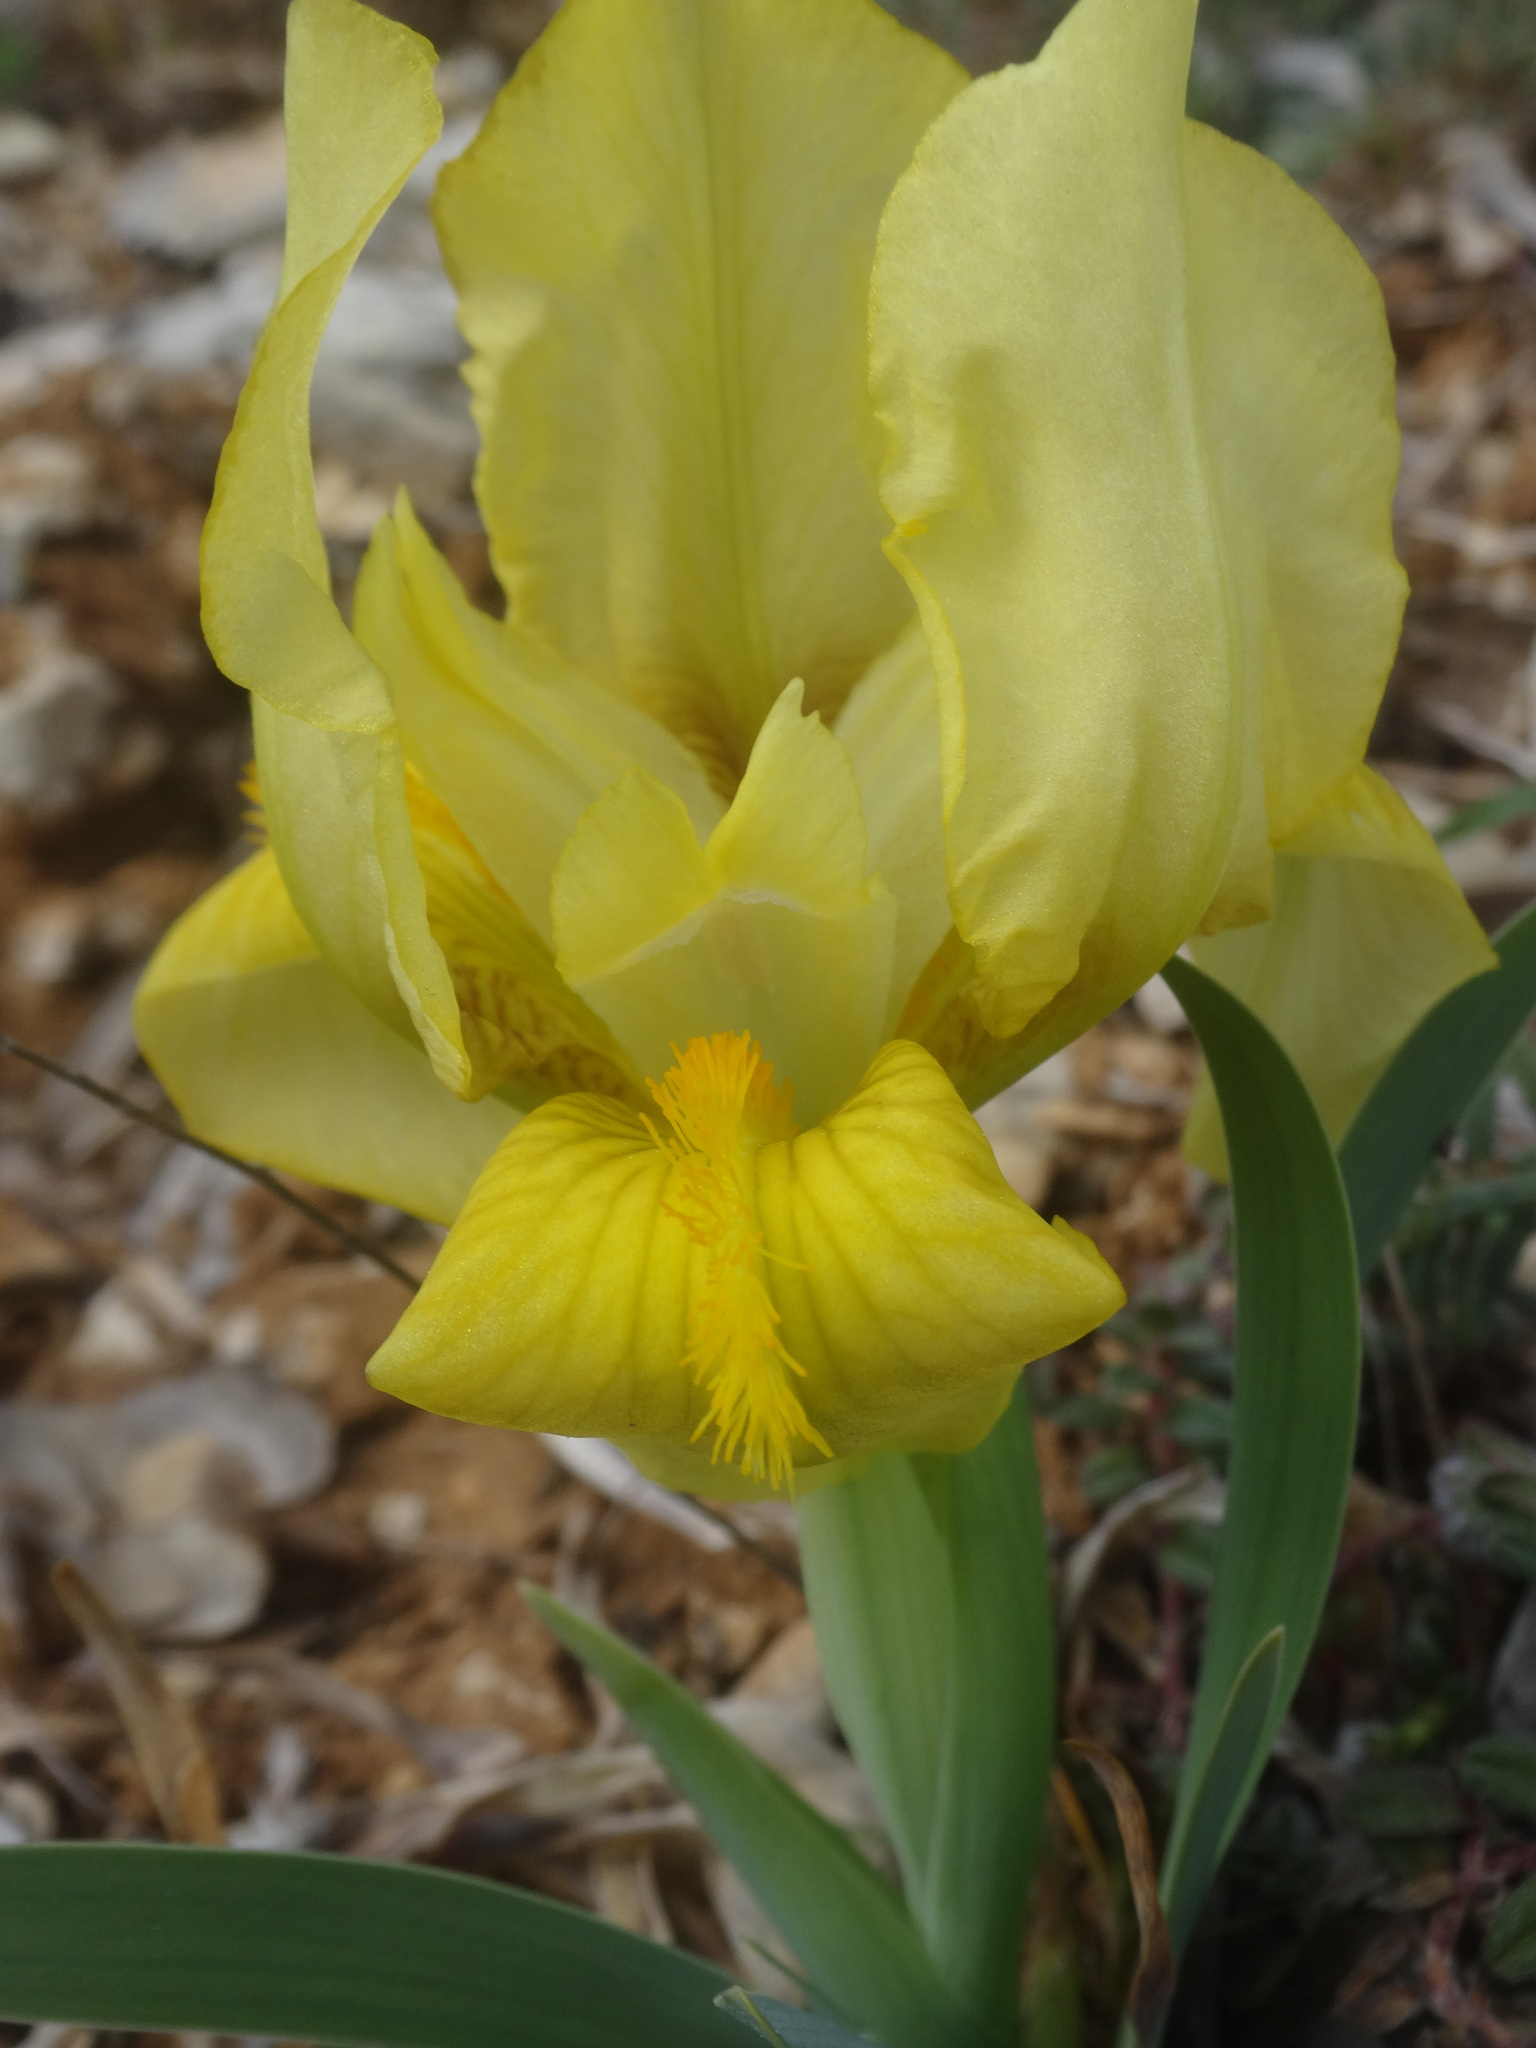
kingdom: Plantae
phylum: Tracheophyta
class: Liliopsida
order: Asparagales
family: Iridaceae
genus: Iris
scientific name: Iris lutescens
